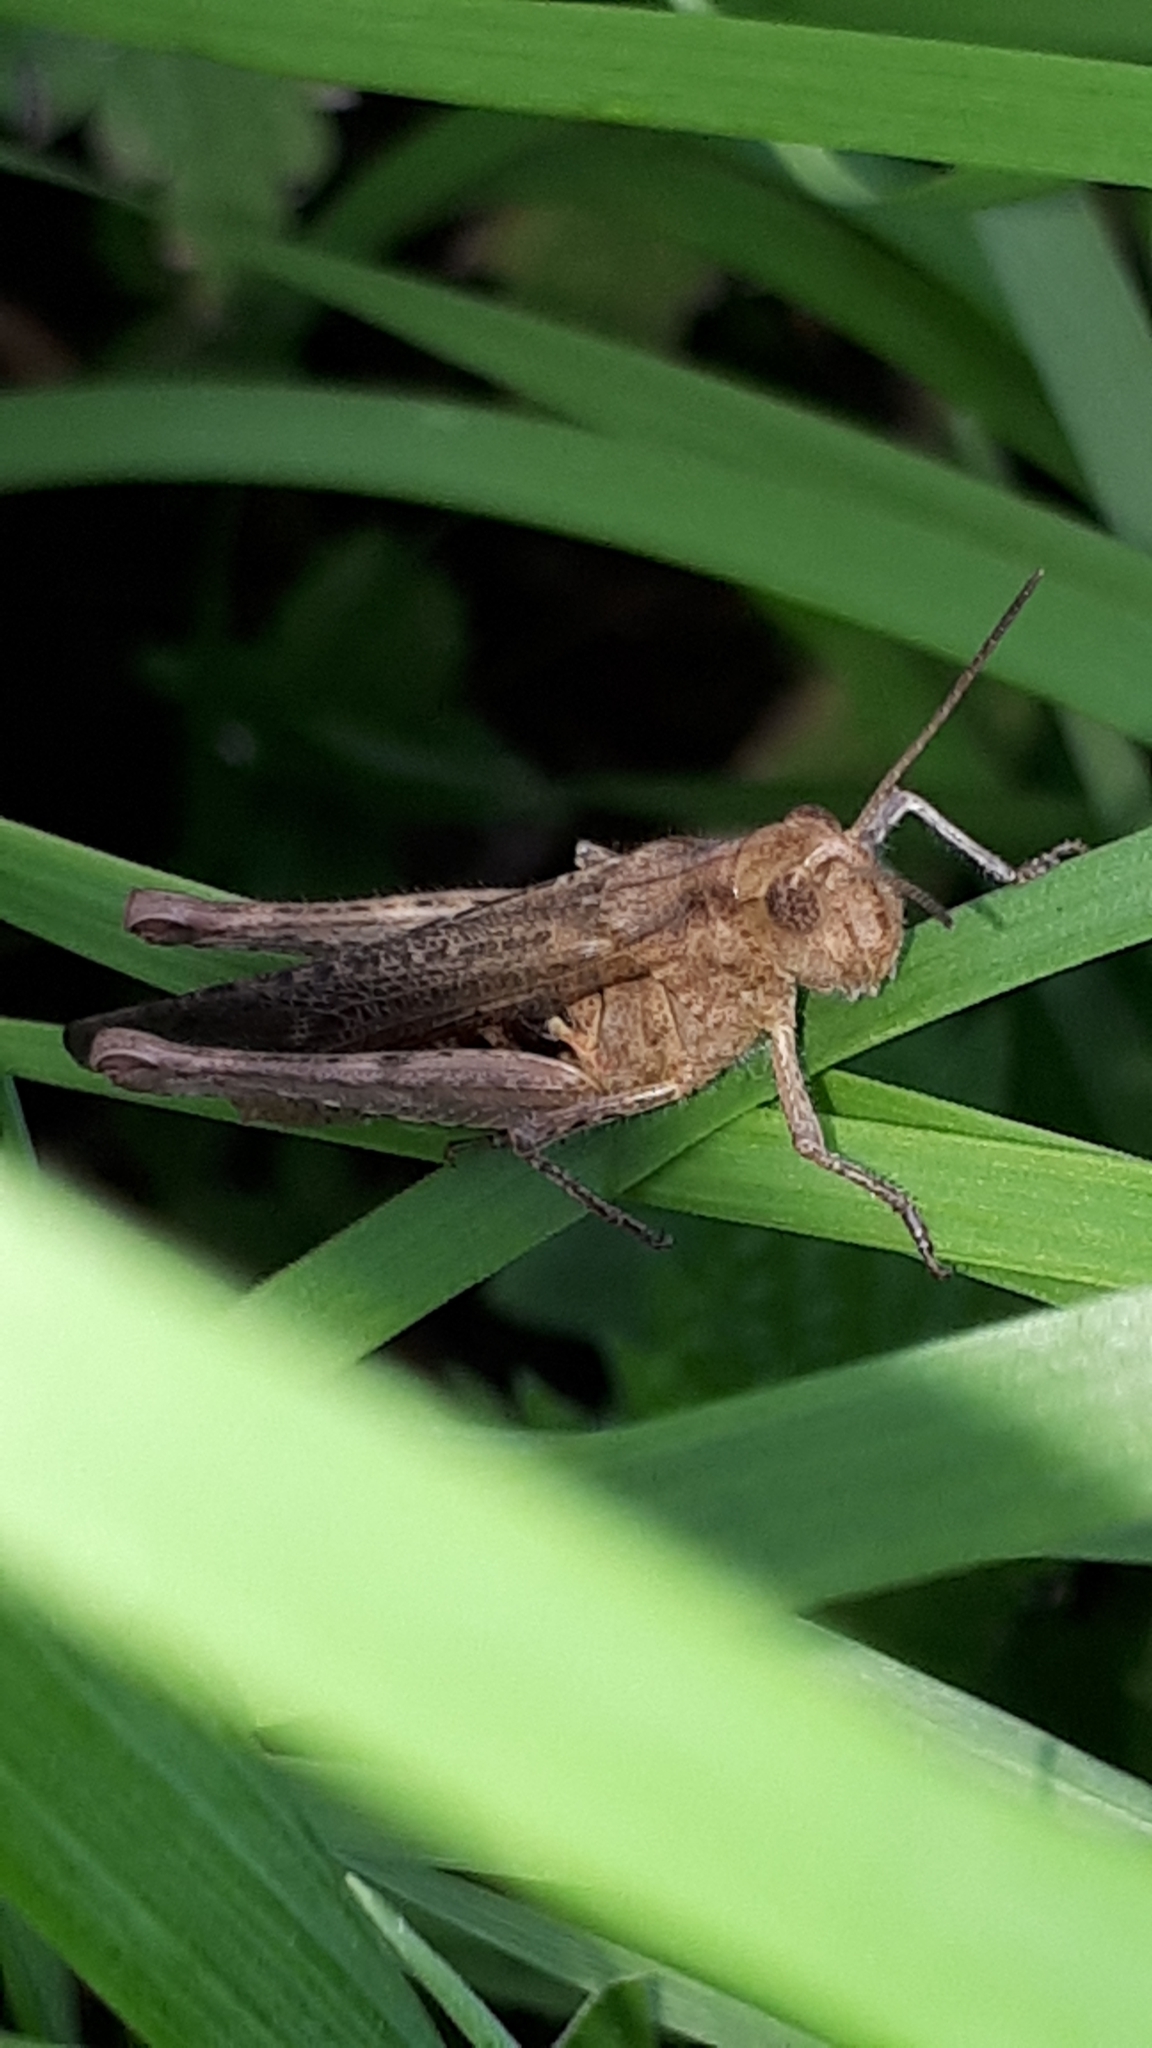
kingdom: Animalia
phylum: Arthropoda
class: Insecta
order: Orthoptera
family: Acrididae
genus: Chorthippus
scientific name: Chorthippus brunneus
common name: Field grasshopper
